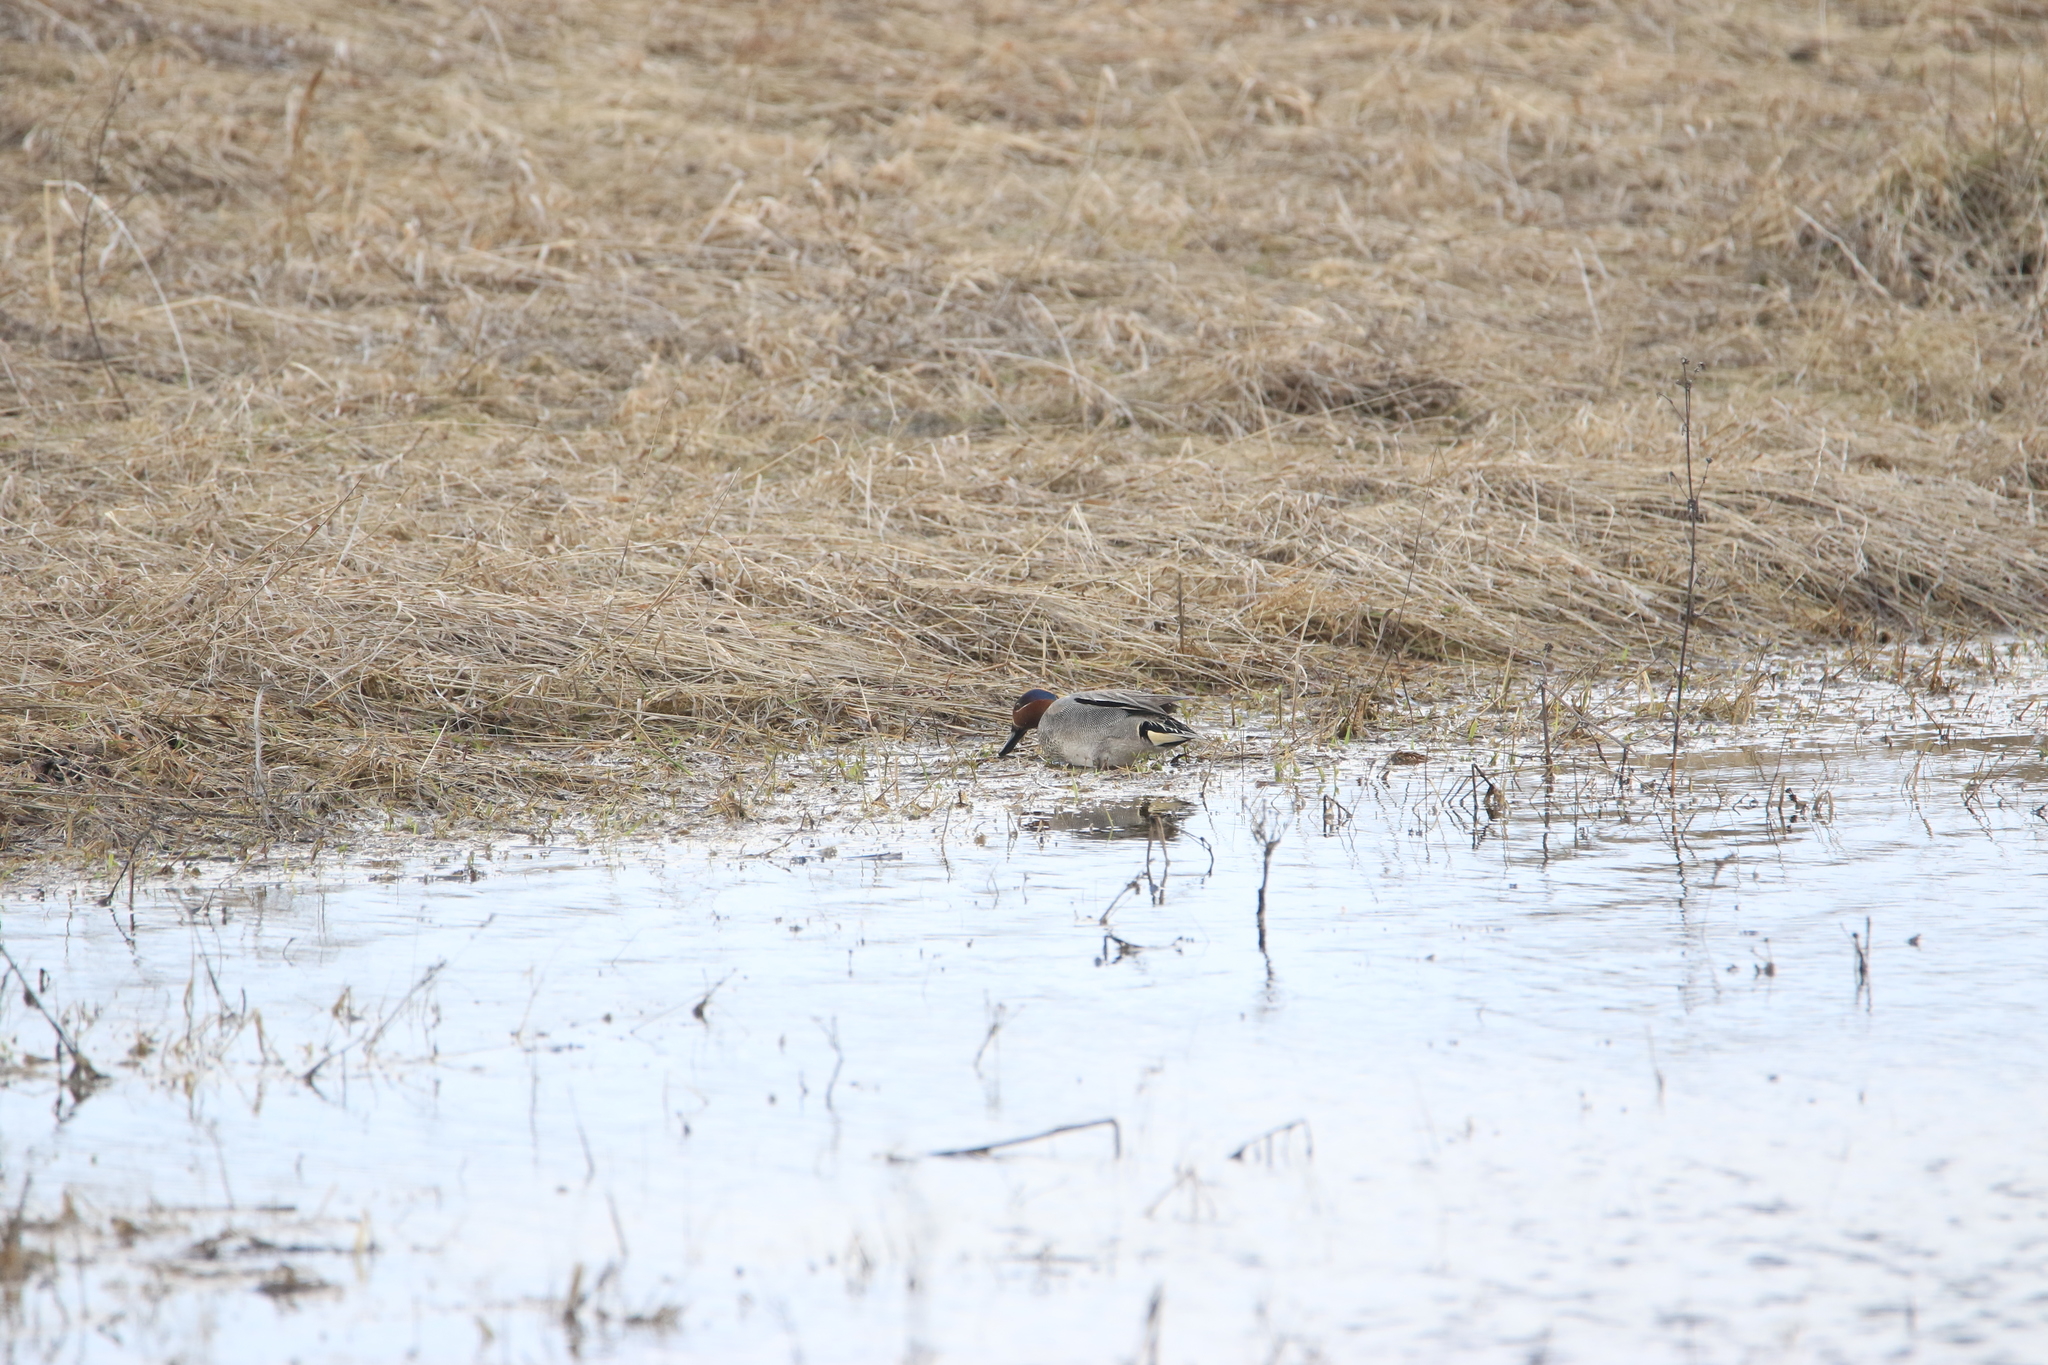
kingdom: Animalia
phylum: Chordata
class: Aves
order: Anseriformes
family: Anatidae
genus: Anas
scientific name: Anas crecca
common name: Eurasian teal
